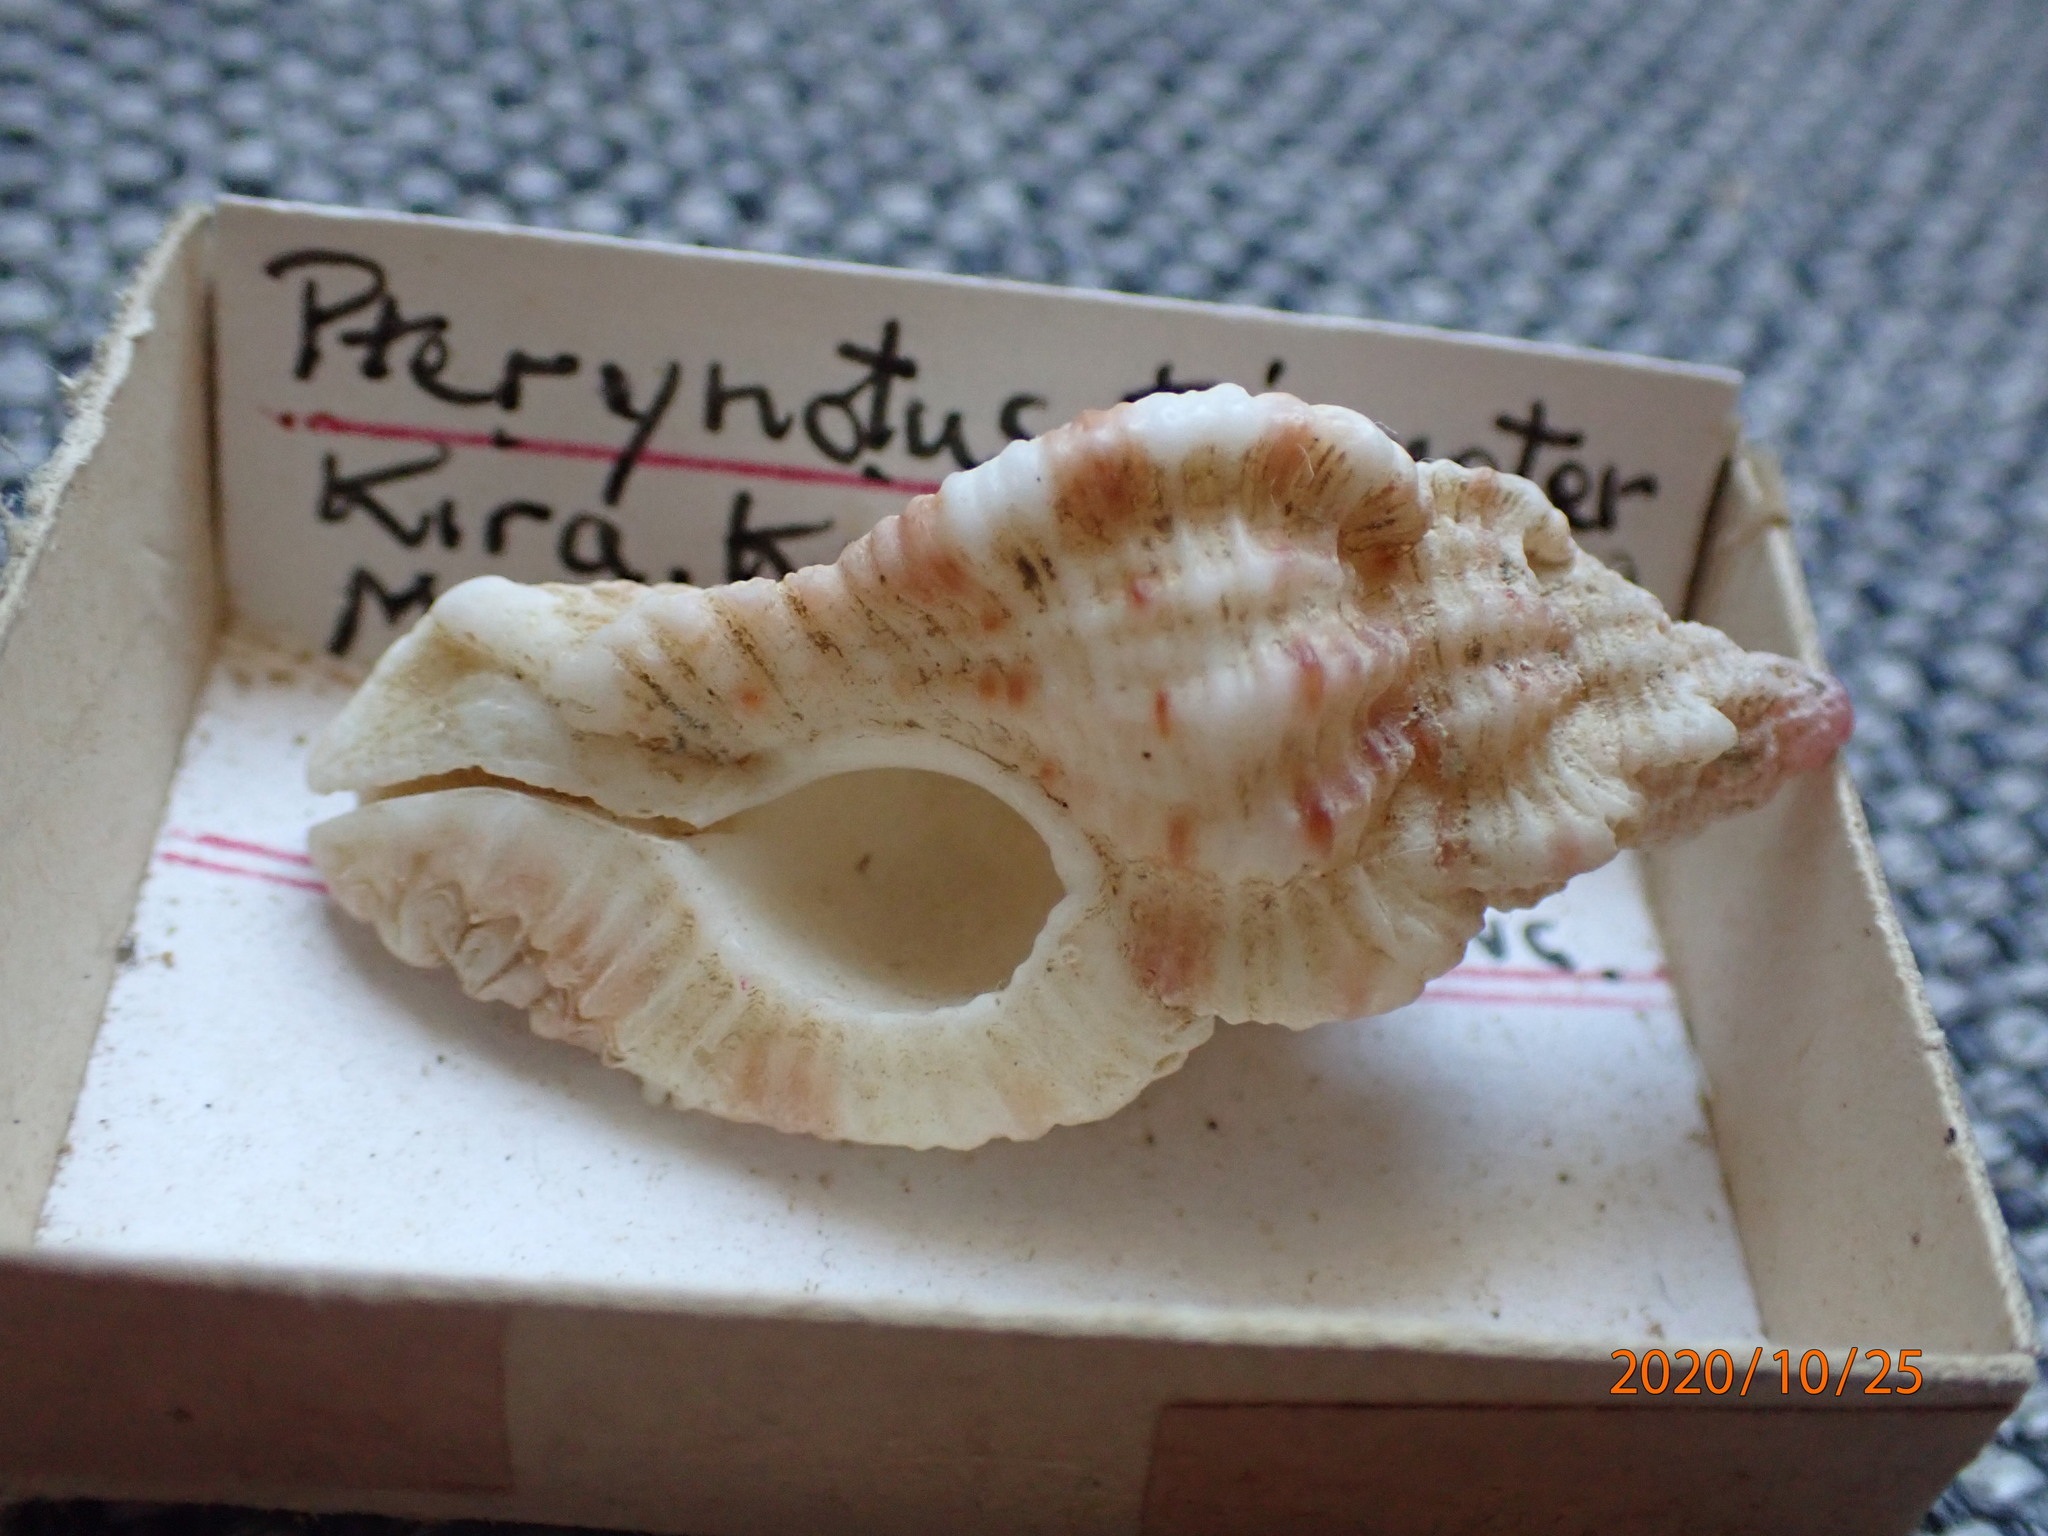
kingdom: Animalia
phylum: Mollusca
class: Gastropoda
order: Neogastropoda
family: Muricidae
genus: Naquetia
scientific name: Naquetia cumingii
